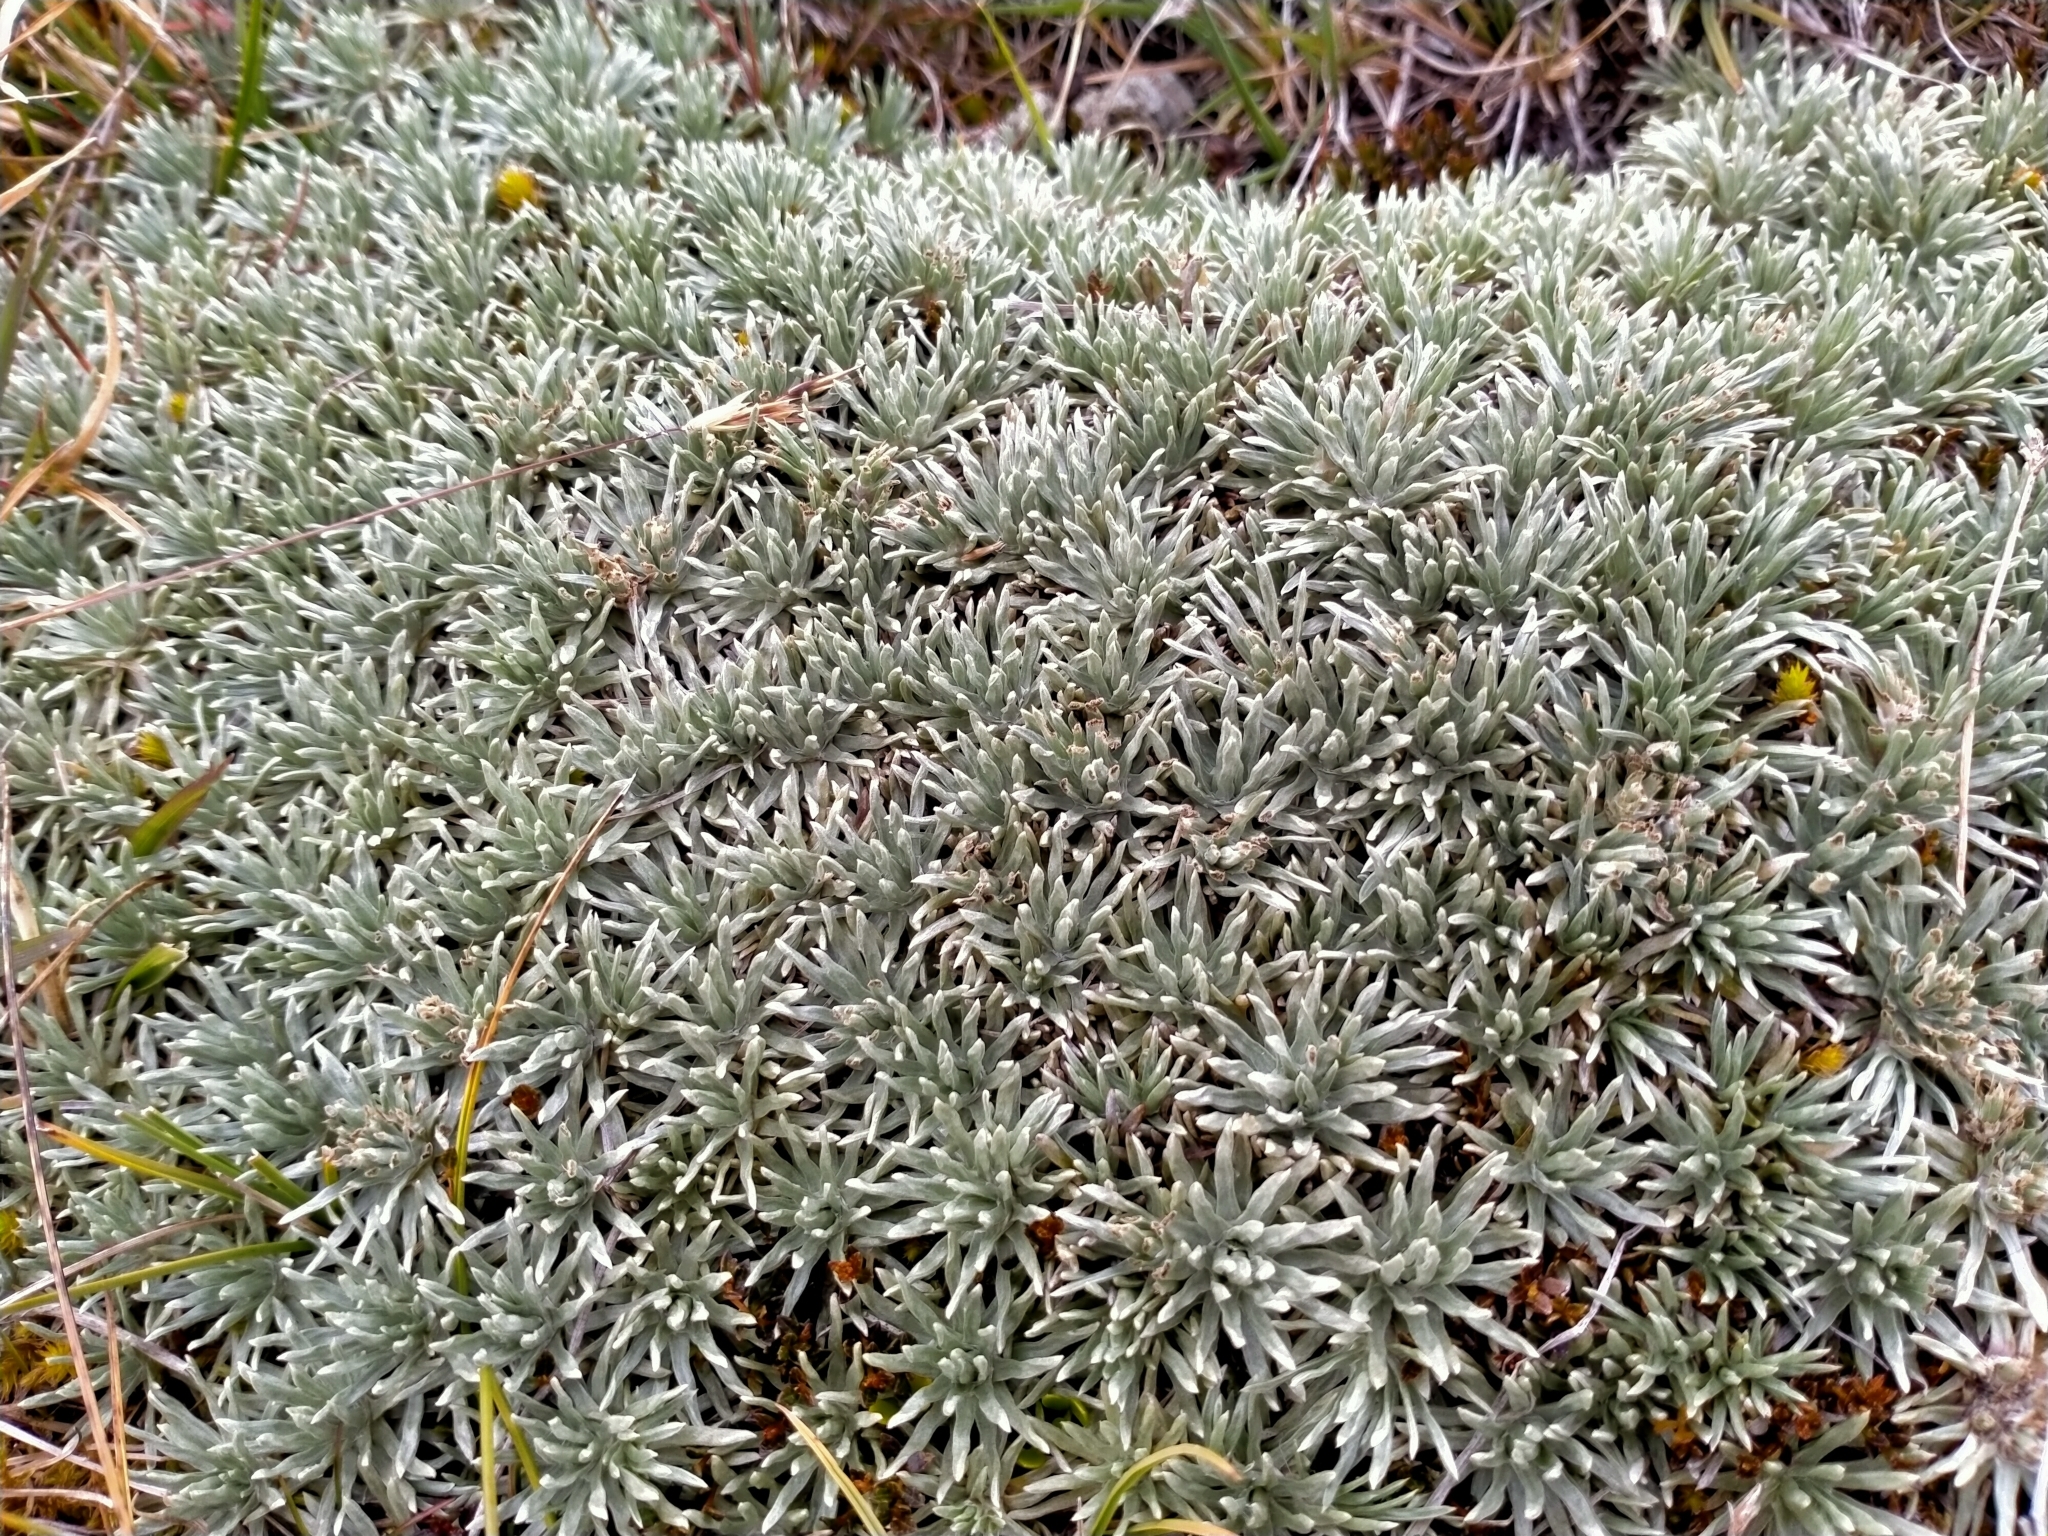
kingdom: Plantae
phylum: Tracheophyta
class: Magnoliopsida
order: Asterales
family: Asteraceae
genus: Celmisia
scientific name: Celmisia sessiliflora
